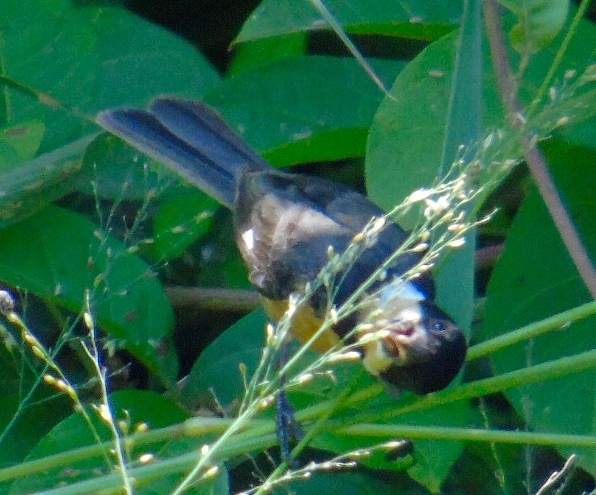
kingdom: Animalia
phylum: Chordata
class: Aves
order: Passeriformes
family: Thraupidae
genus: Sporophila
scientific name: Sporophila torqueola
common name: White-collared seedeater
